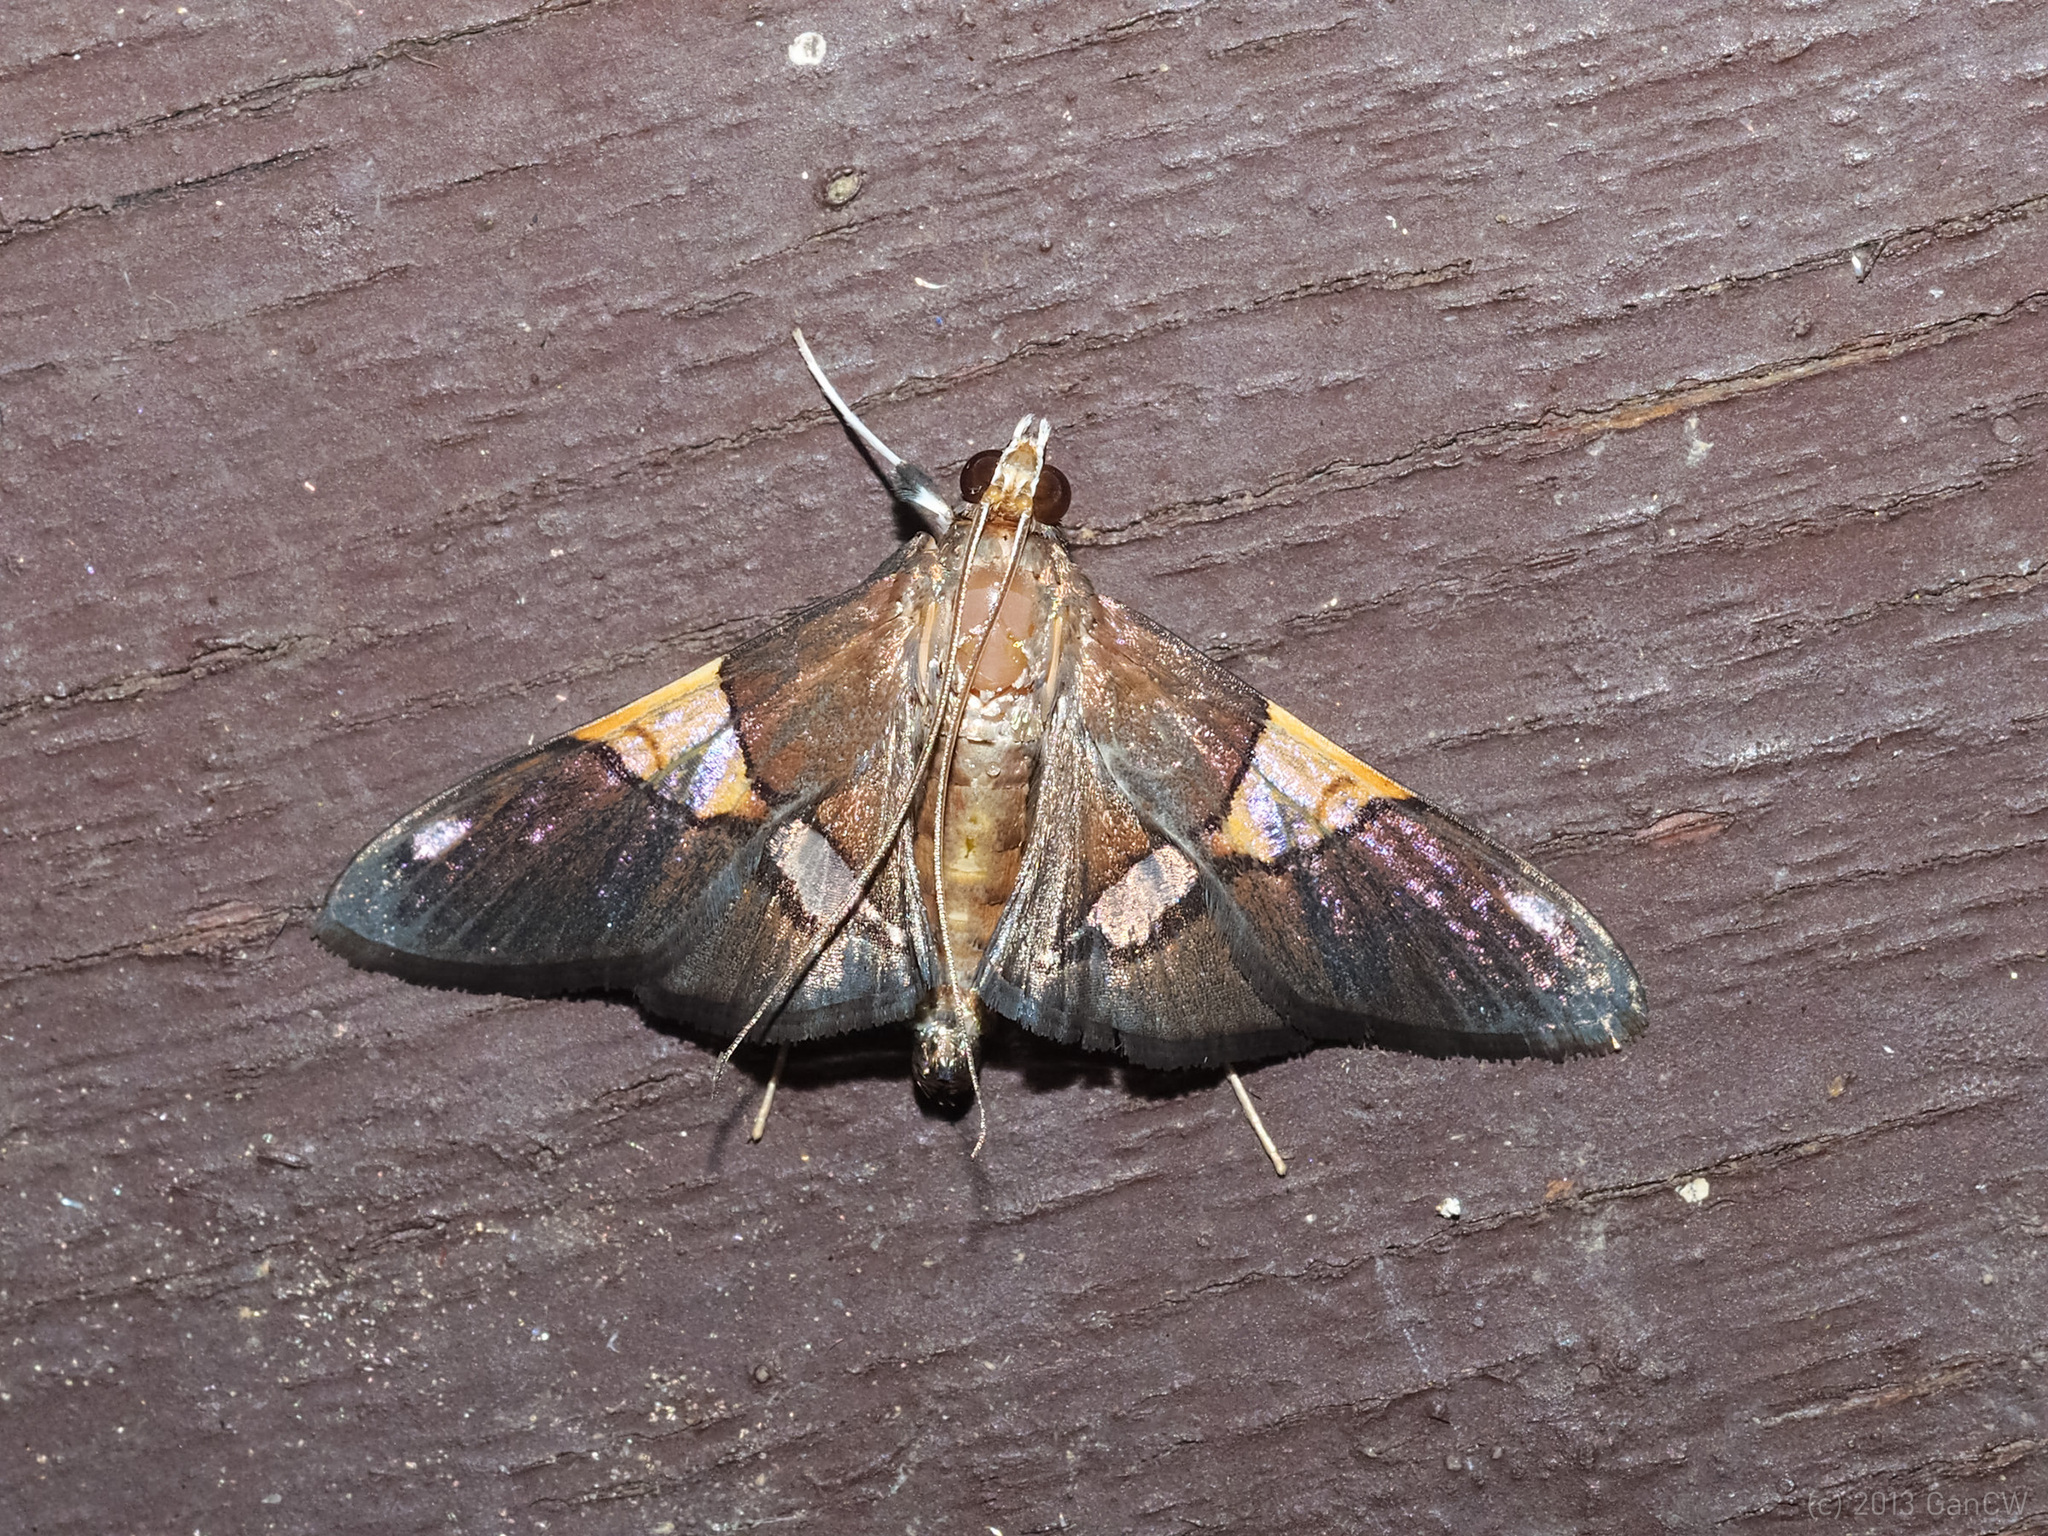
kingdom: Animalia
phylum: Arthropoda
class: Insecta
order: Lepidoptera
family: Crambidae
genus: Heterocnephes
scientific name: Heterocnephes scapulalis
